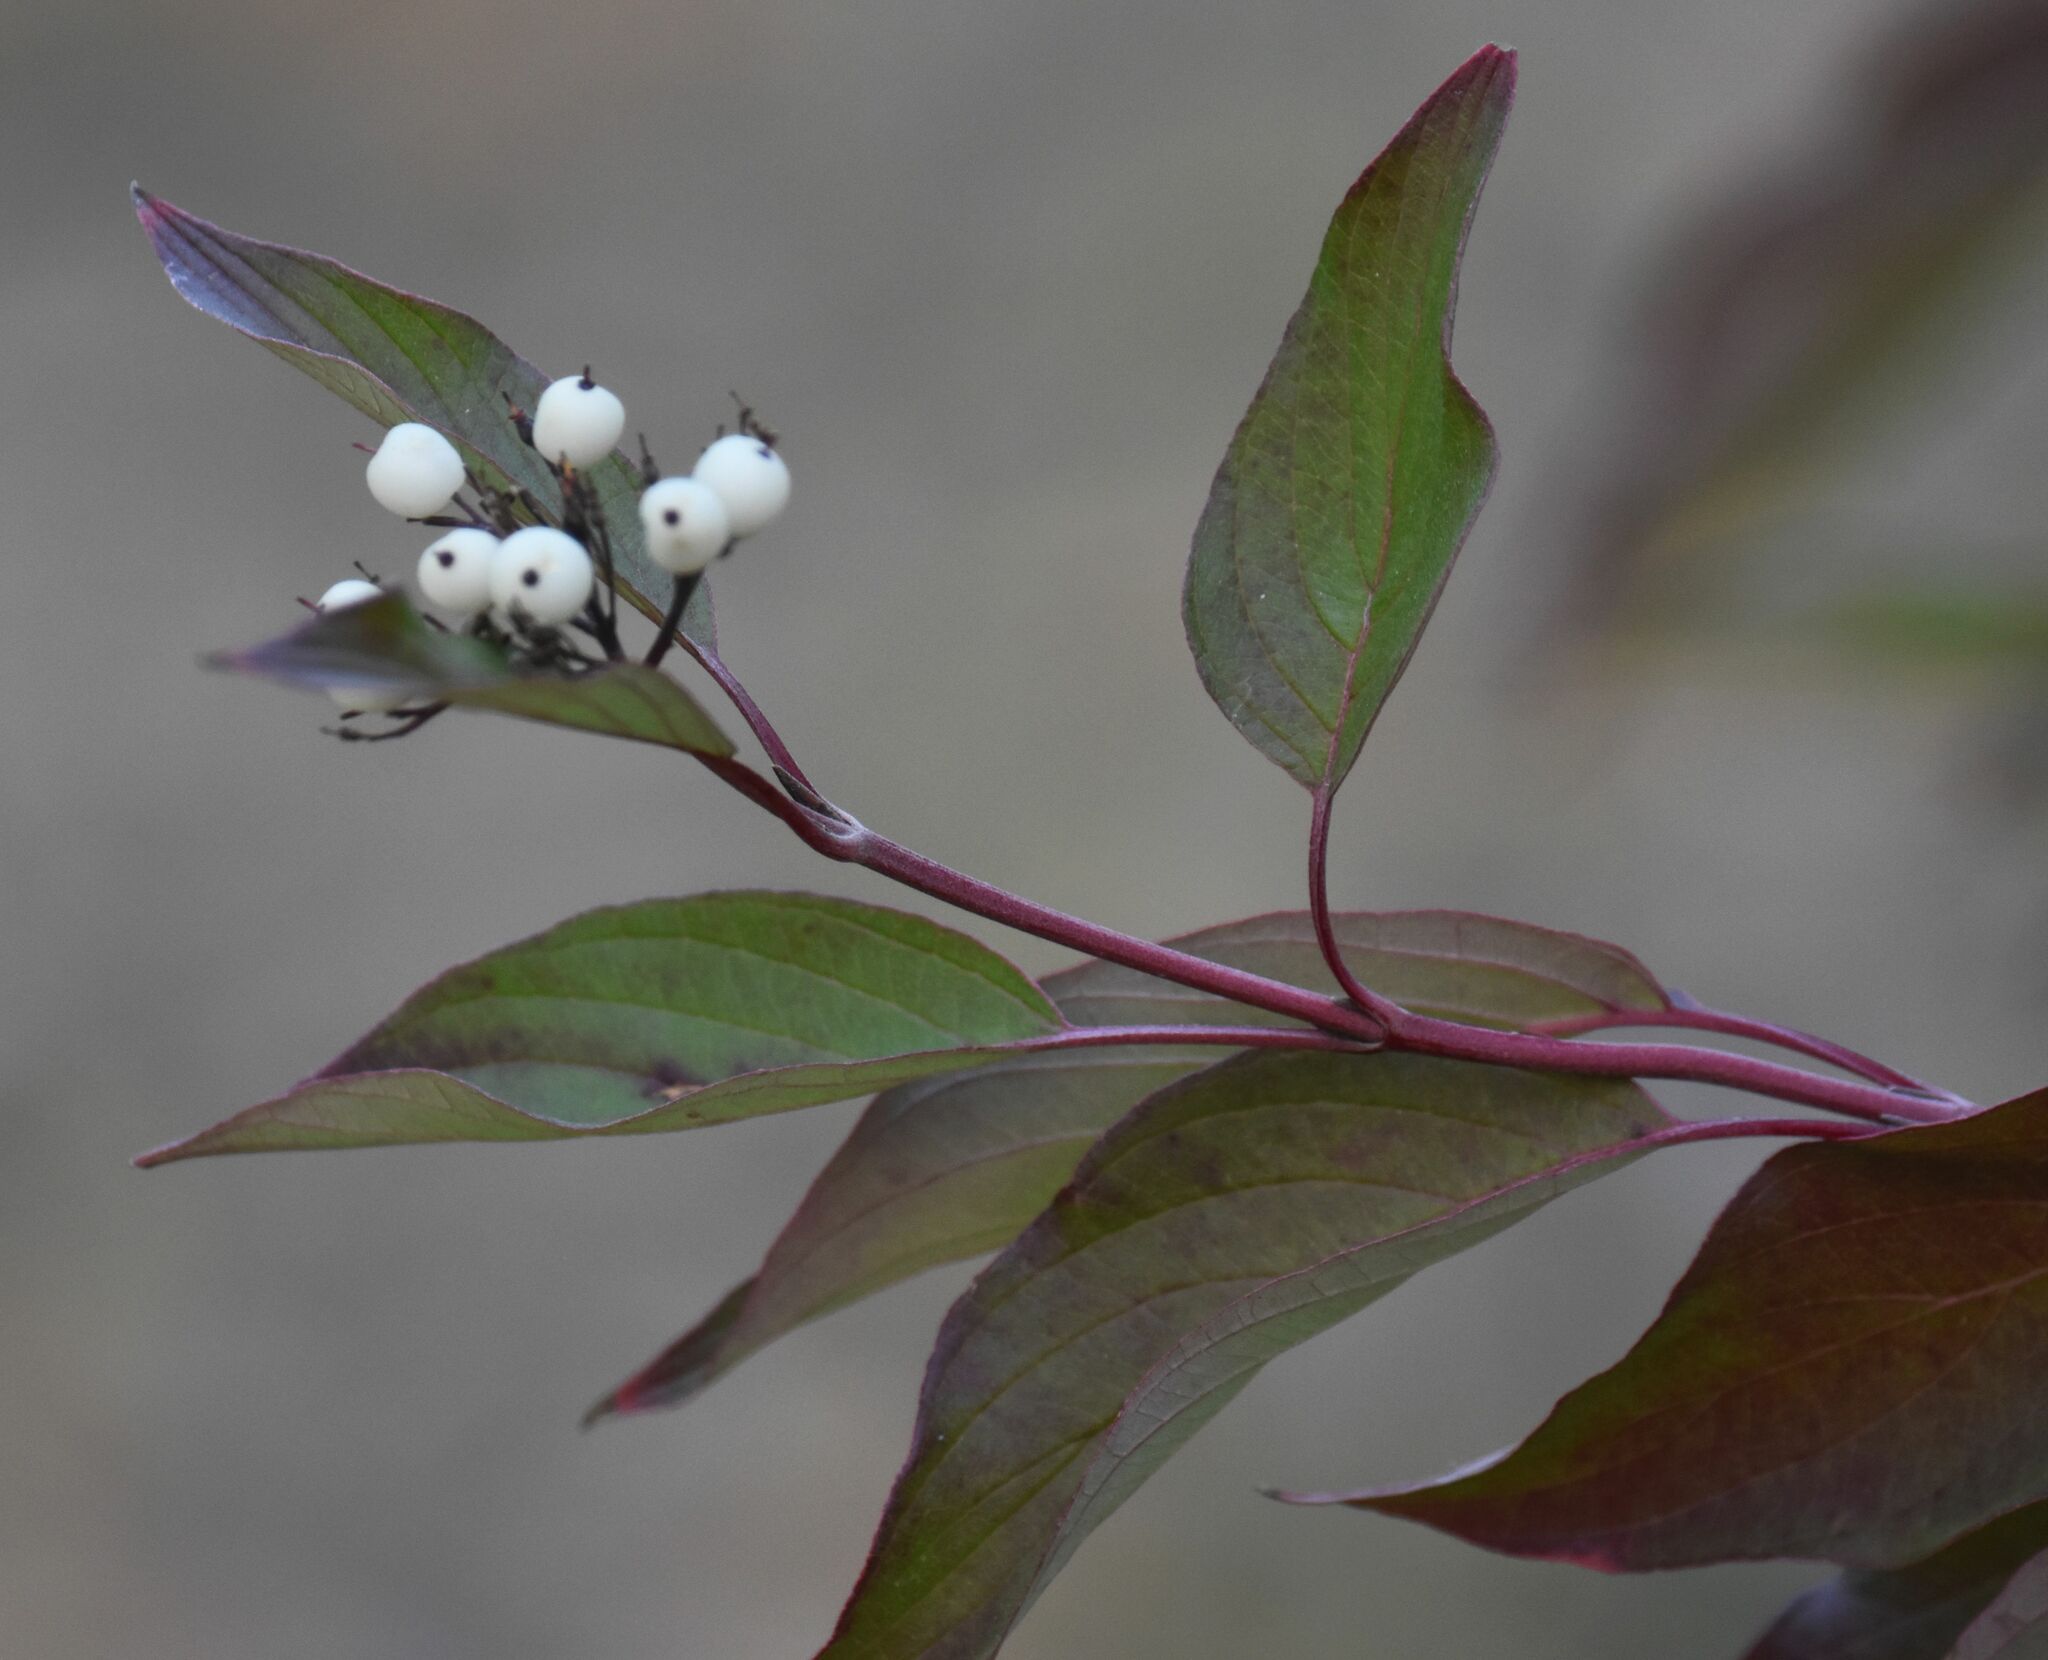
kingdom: Plantae
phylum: Tracheophyta
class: Magnoliopsida
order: Cornales
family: Cornaceae
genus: Cornus
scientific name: Cornus sericea
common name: Red-osier dogwood
